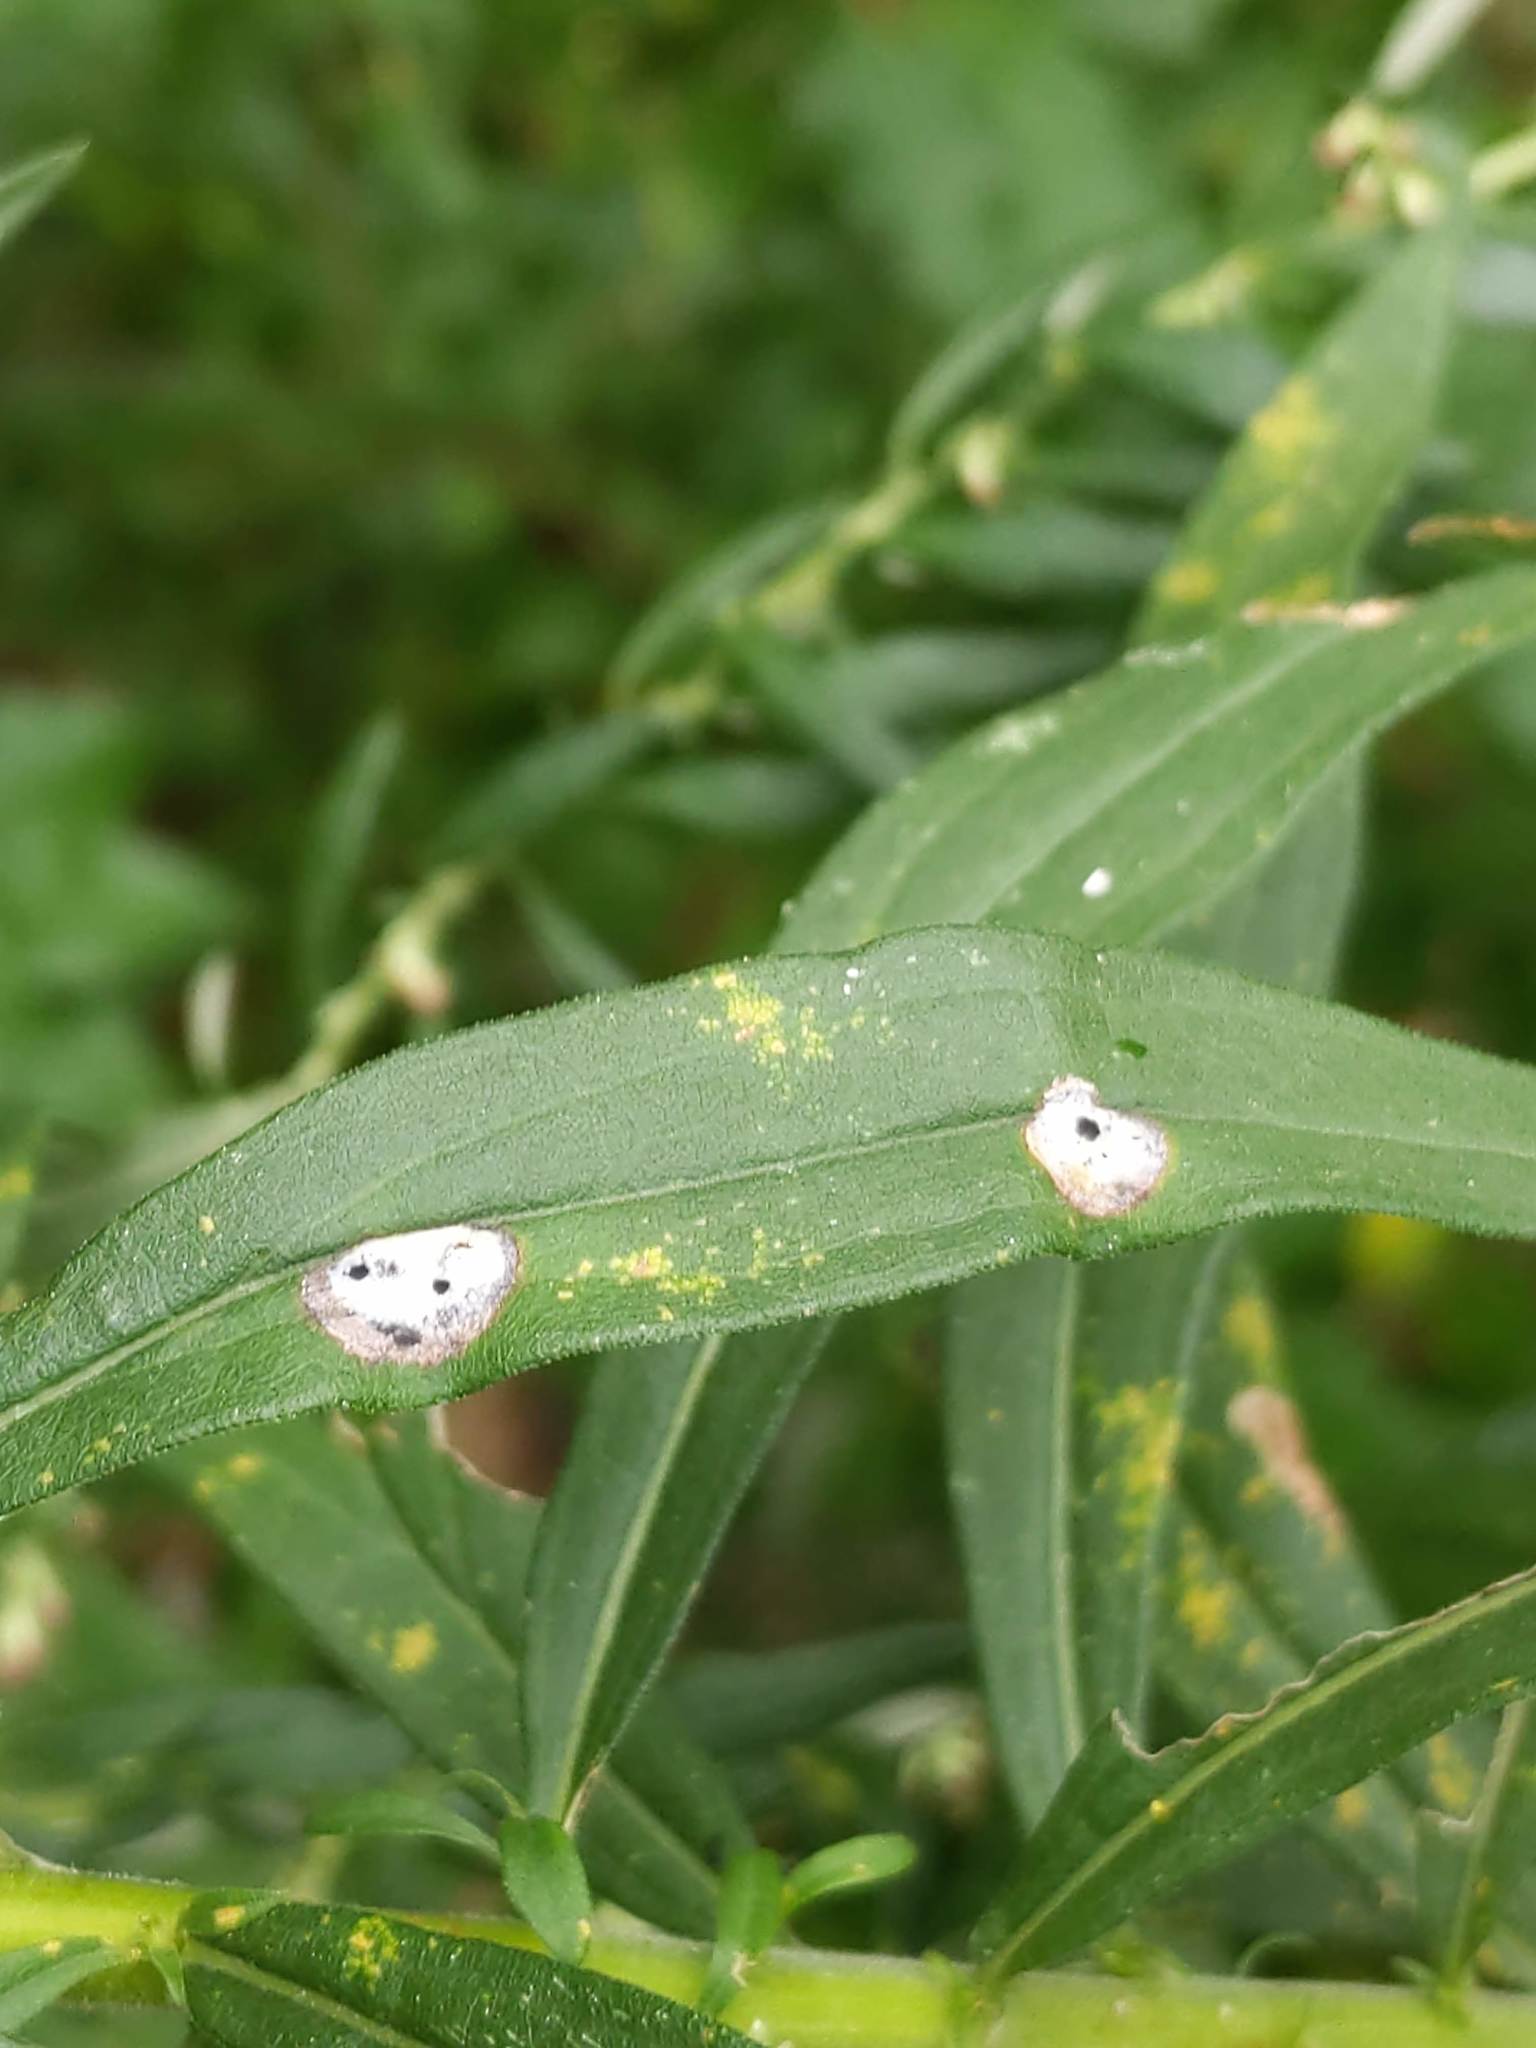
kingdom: Animalia
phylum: Arthropoda
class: Insecta
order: Diptera
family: Cecidomyiidae
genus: Asteromyia
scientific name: Asteromyia carbonifera
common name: Carbonifera goldenrod gall midge
